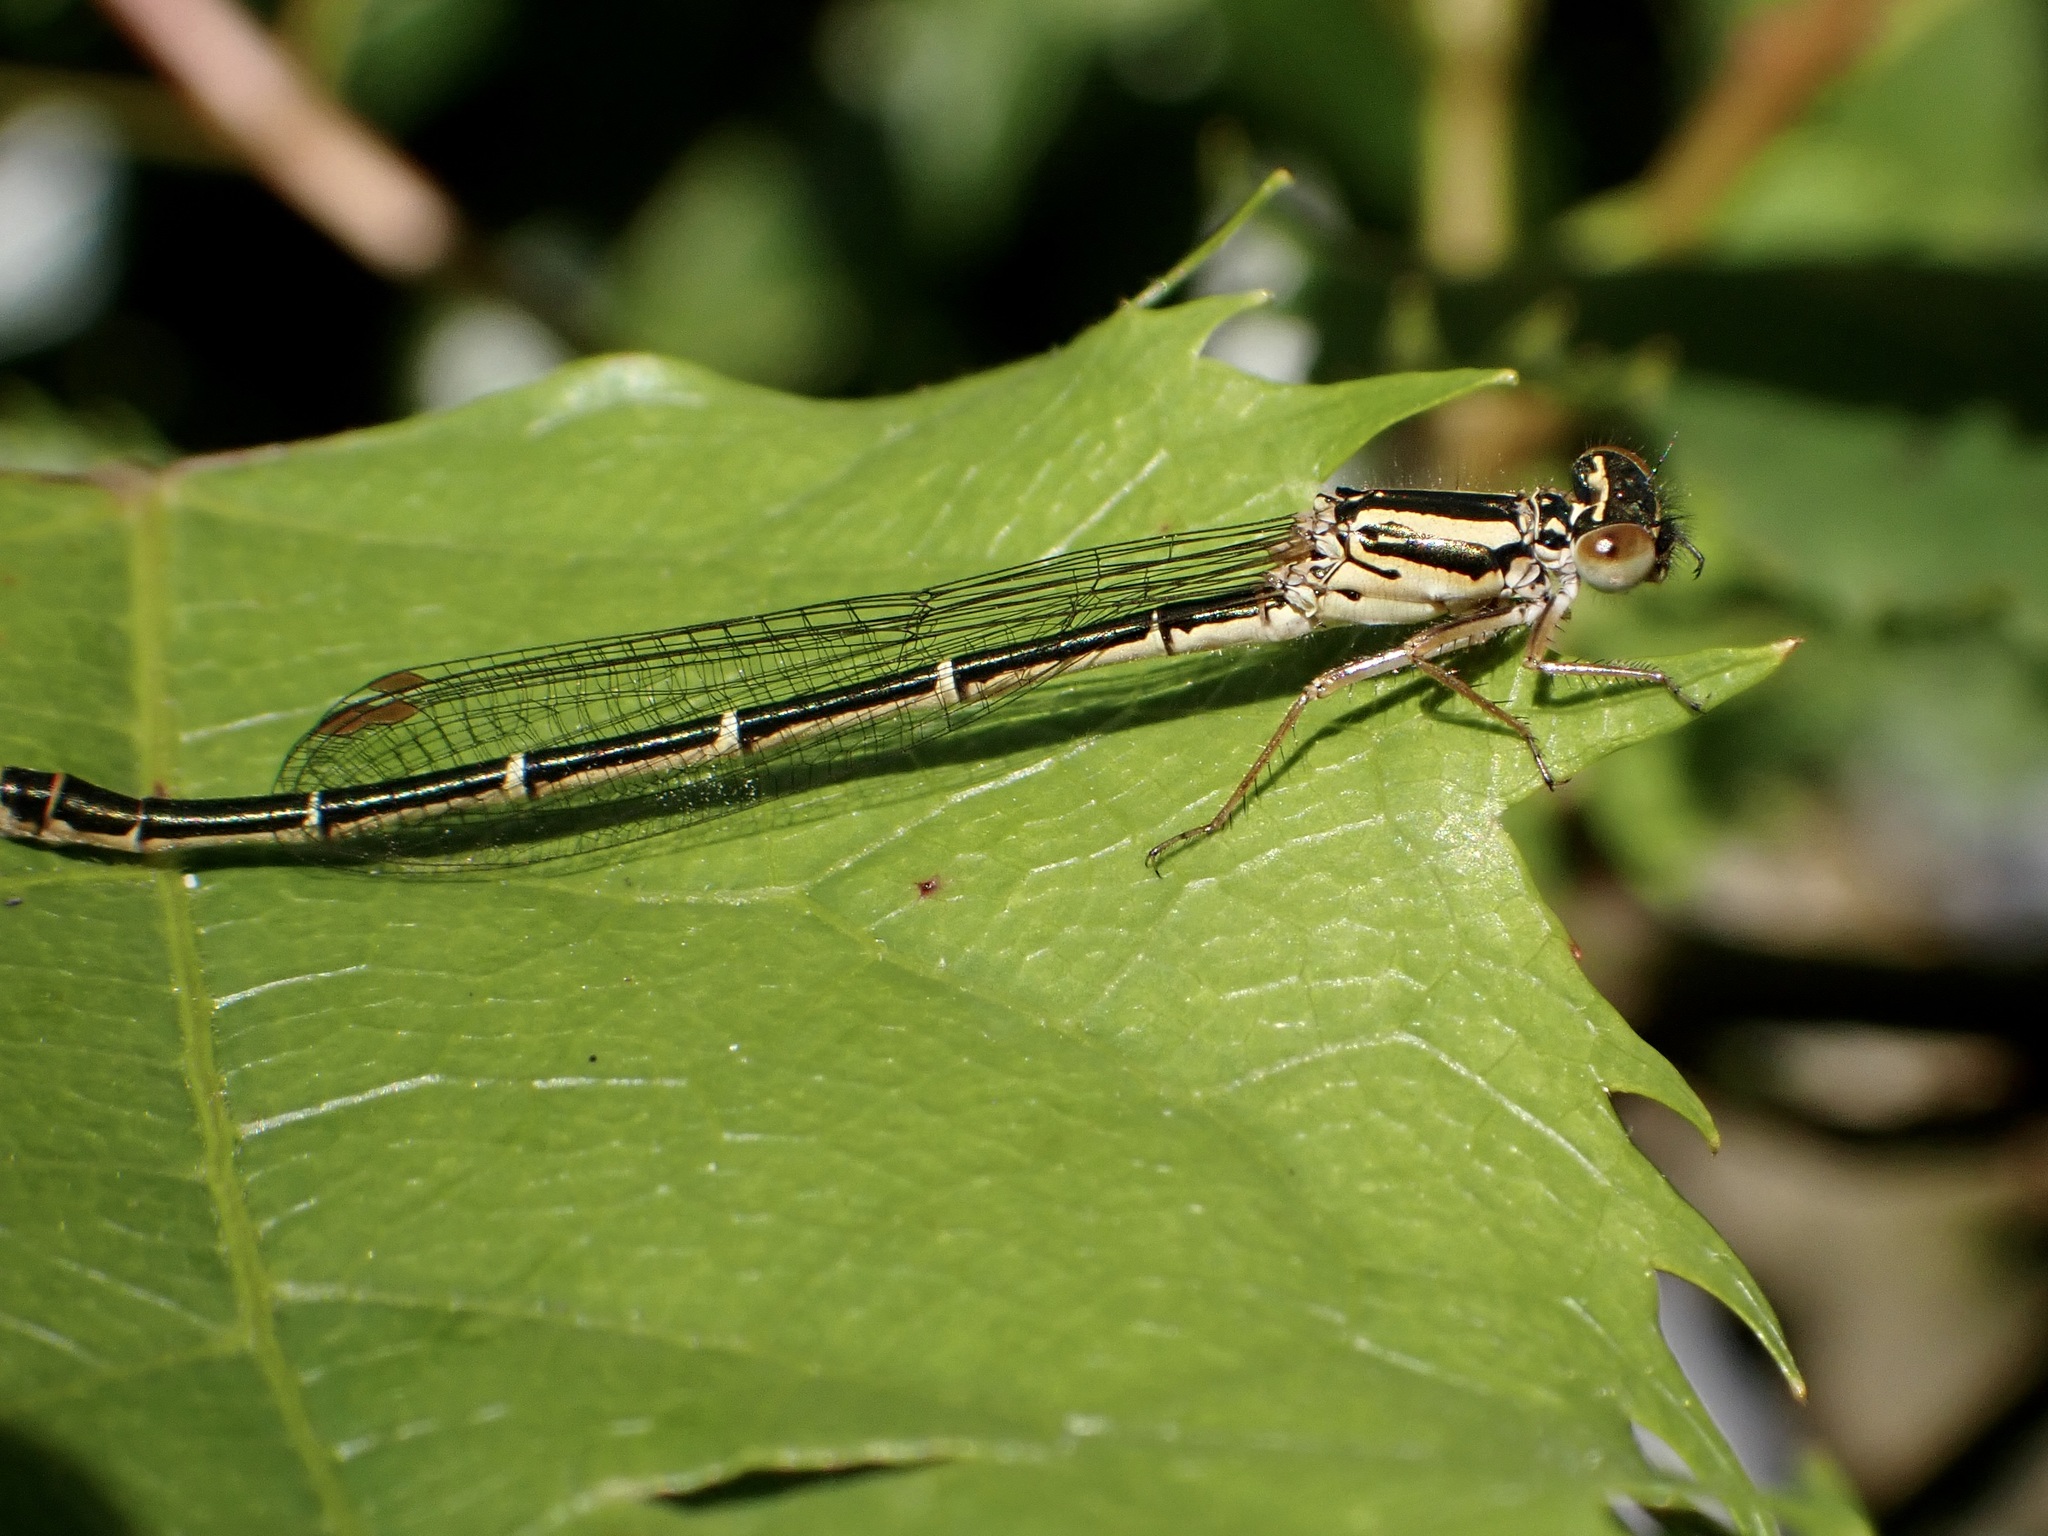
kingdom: Animalia
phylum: Arthropoda
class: Insecta
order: Odonata
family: Coenagrionidae
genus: Xanthocnemis
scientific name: Xanthocnemis zealandica
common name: Common redcoat damselfly
